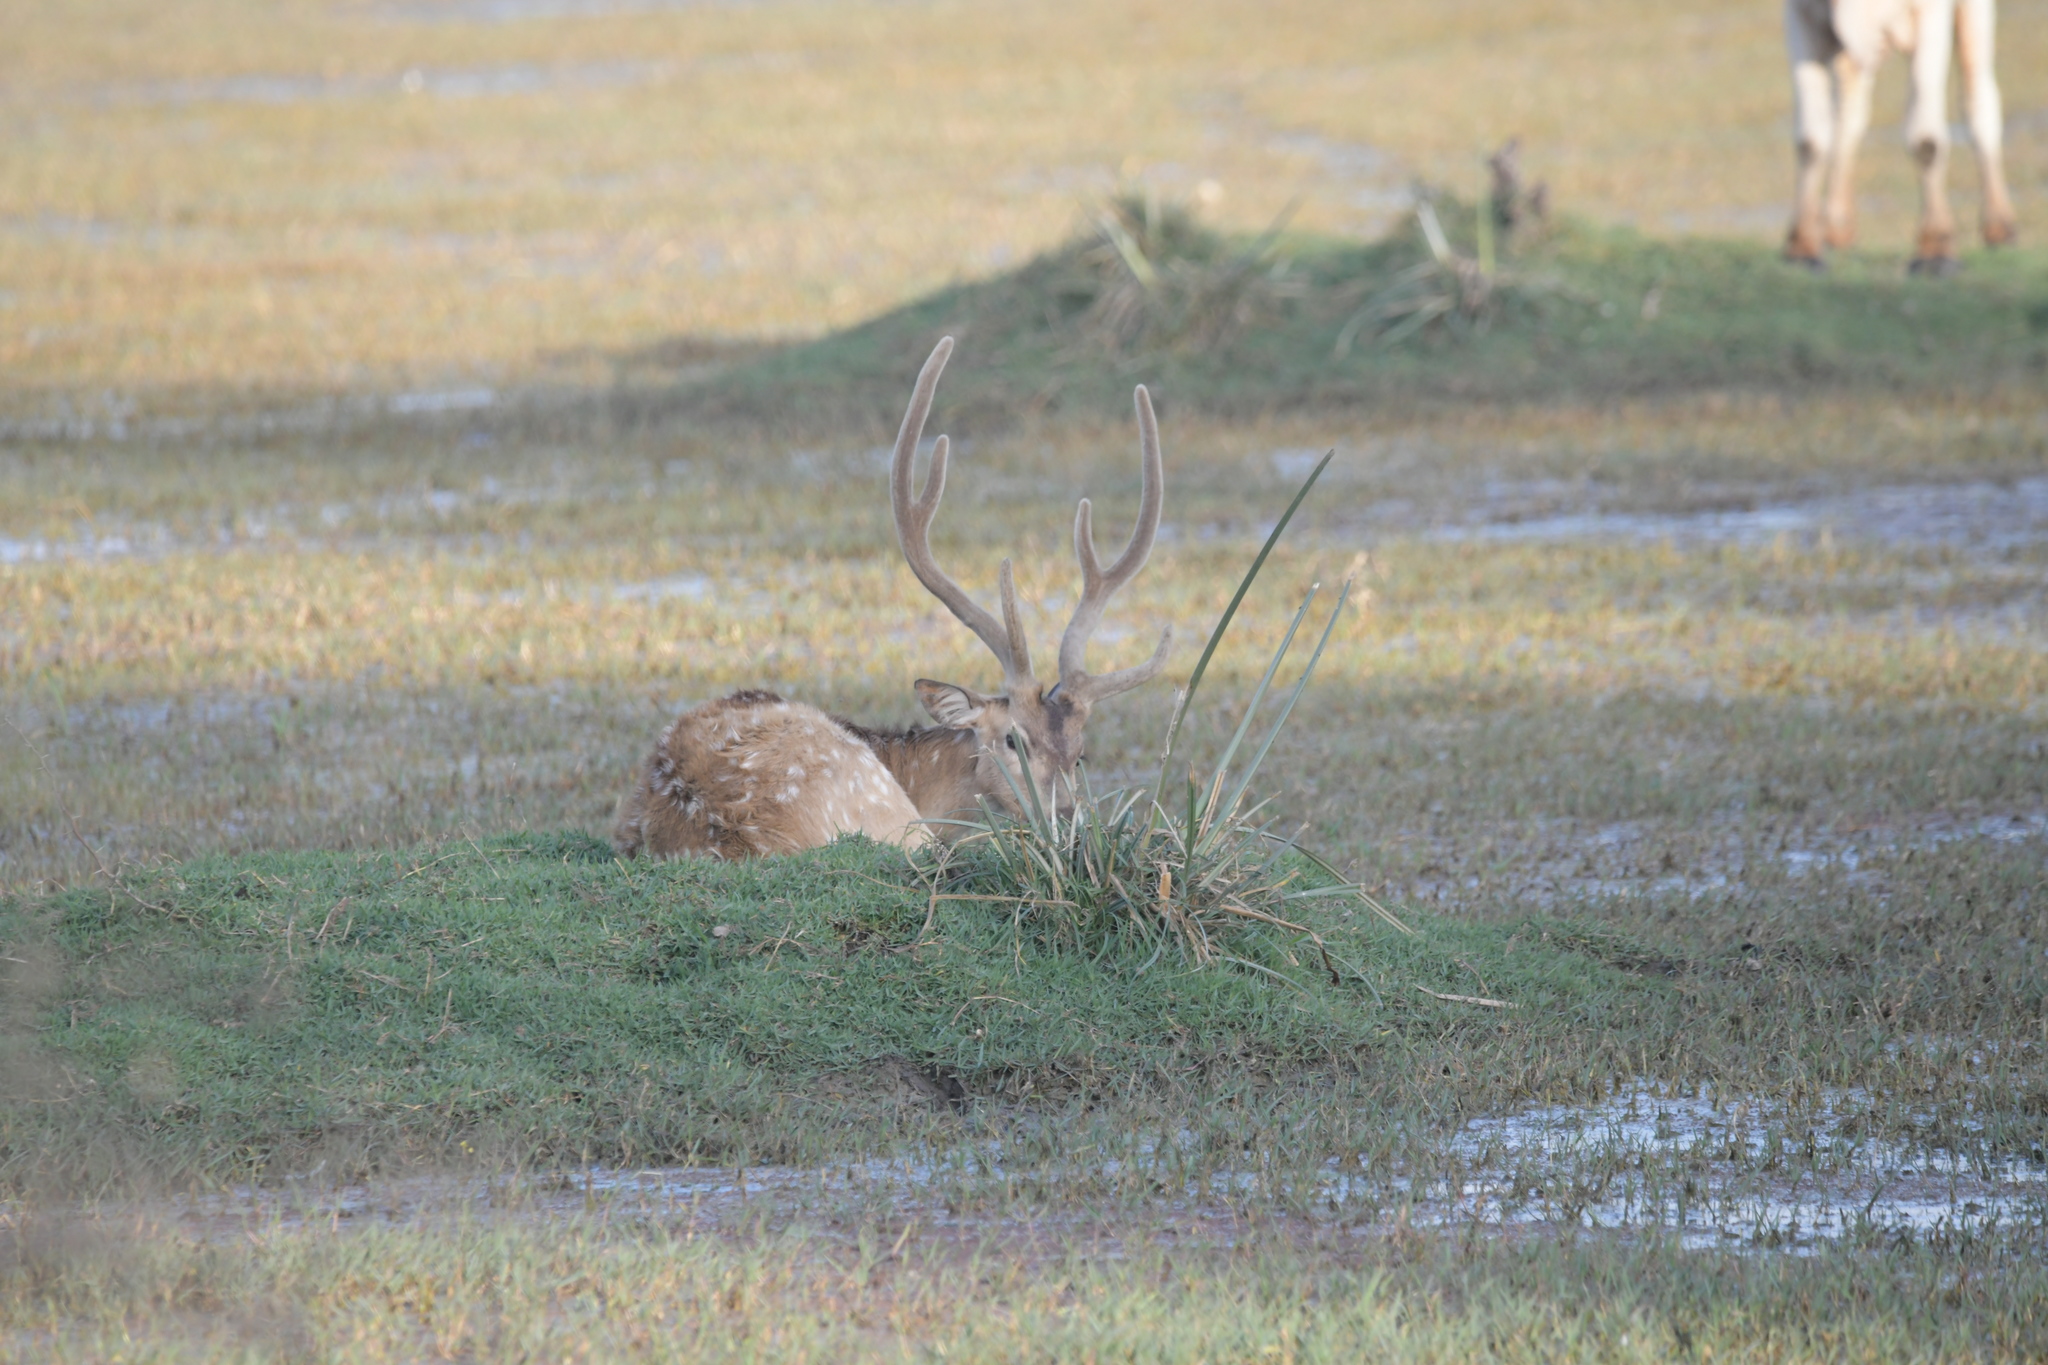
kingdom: Animalia
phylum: Chordata
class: Mammalia
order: Artiodactyla
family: Cervidae
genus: Axis
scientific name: Axis axis
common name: Chital
